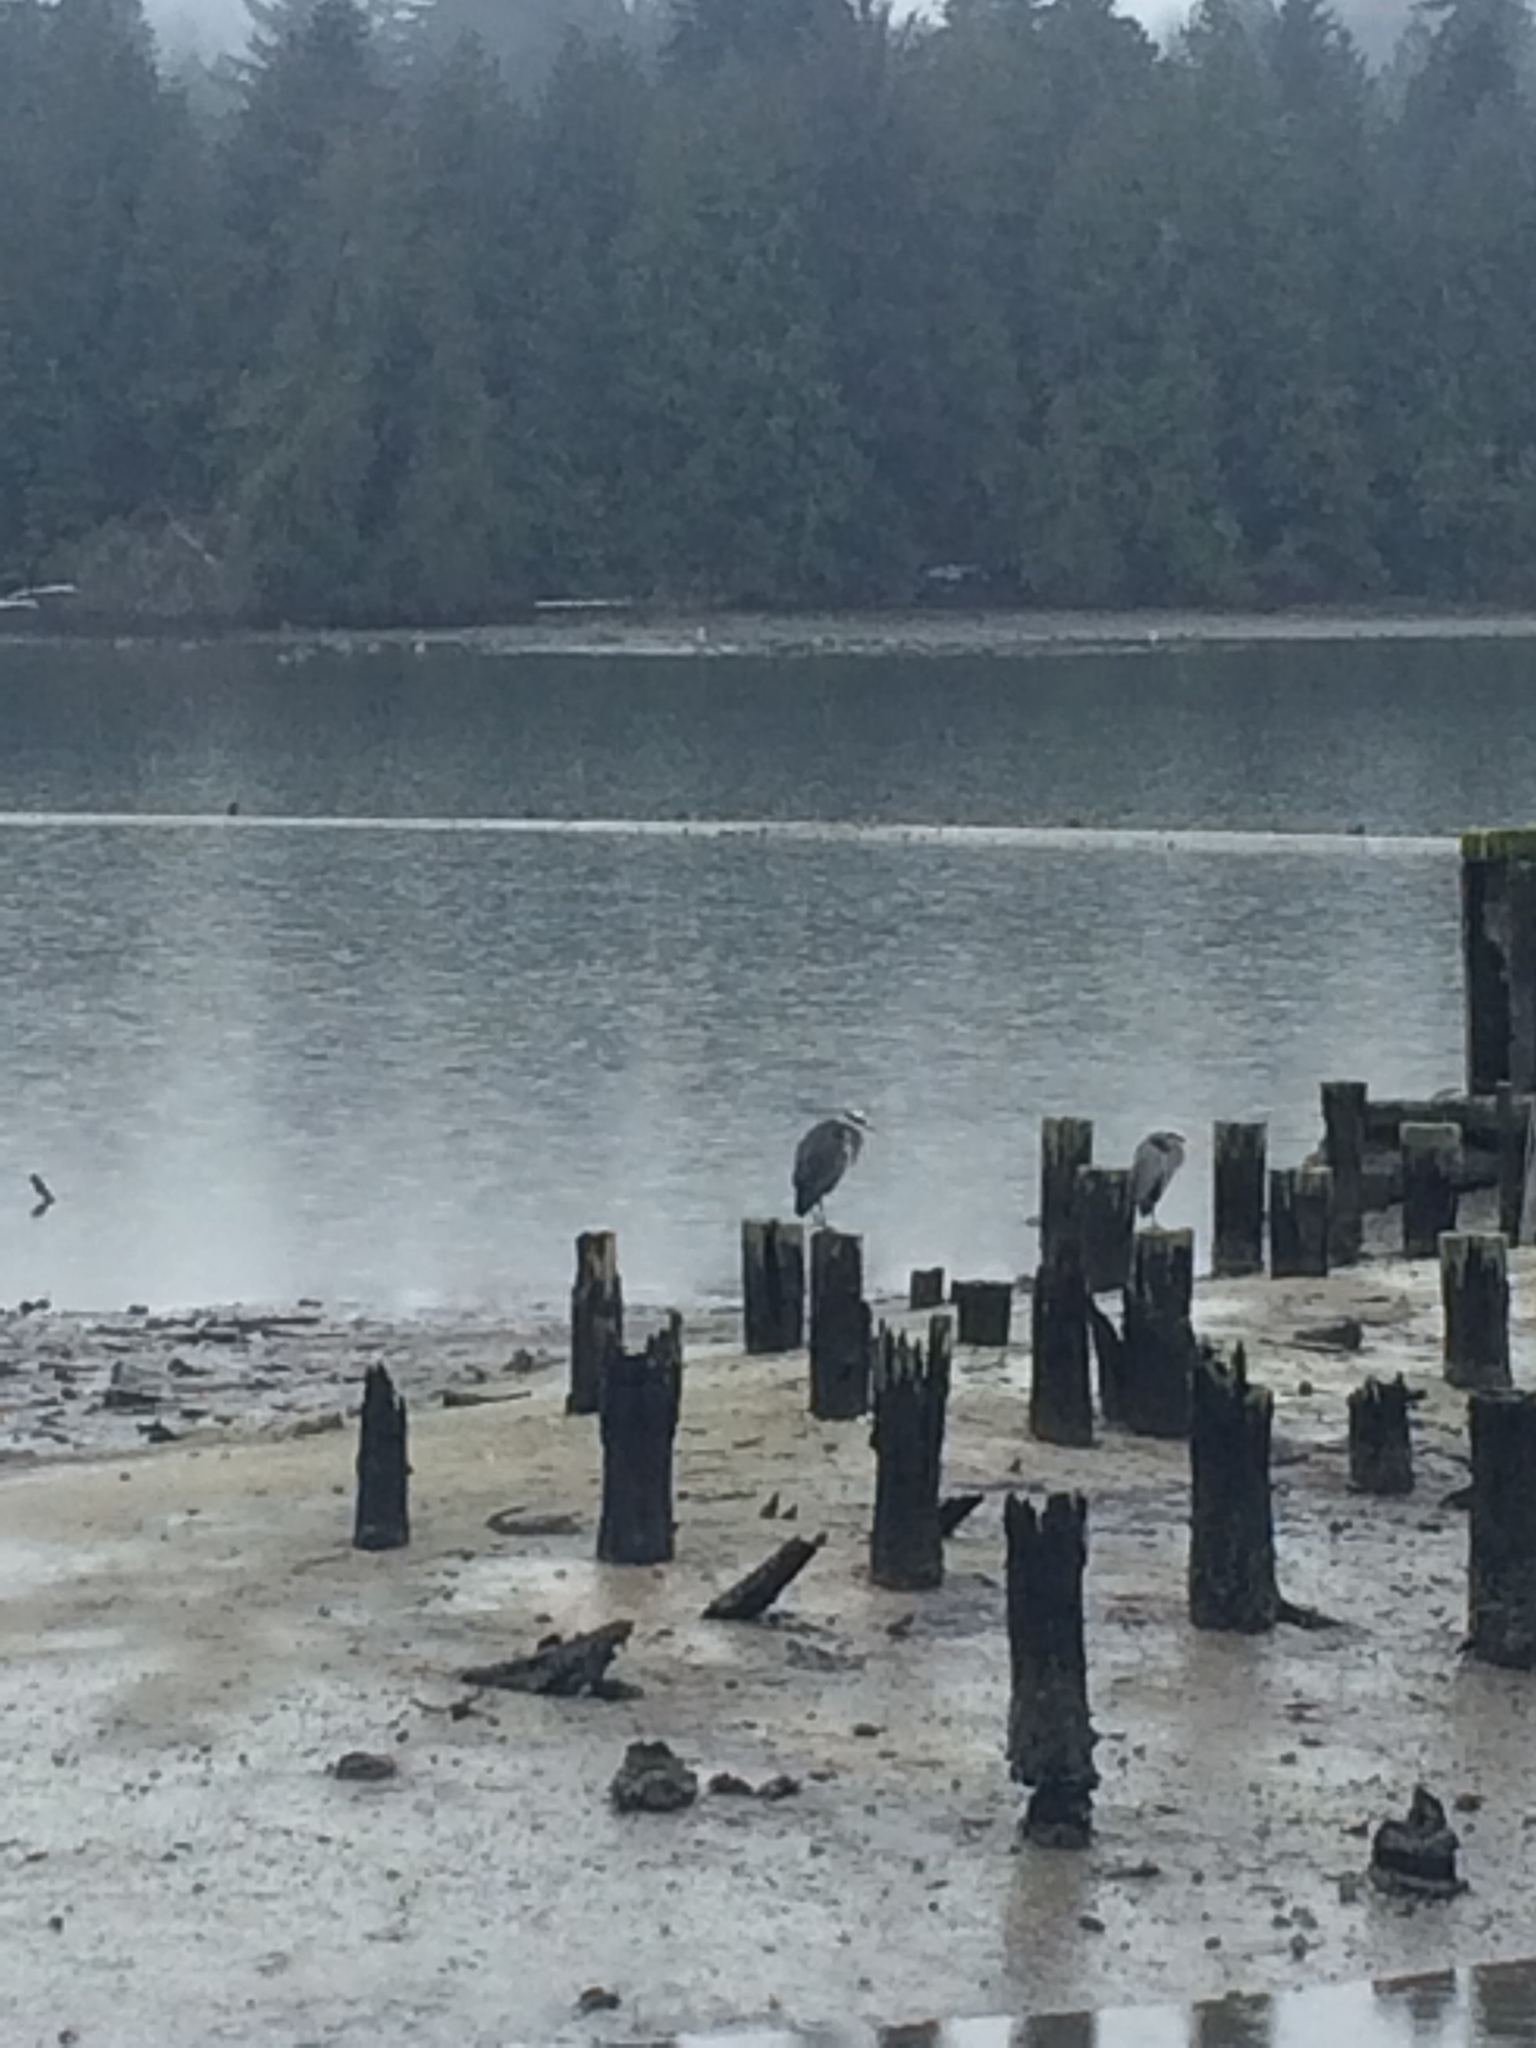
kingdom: Animalia
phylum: Chordata
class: Aves
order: Pelecaniformes
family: Ardeidae
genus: Ardea
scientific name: Ardea herodias
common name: Great blue heron
